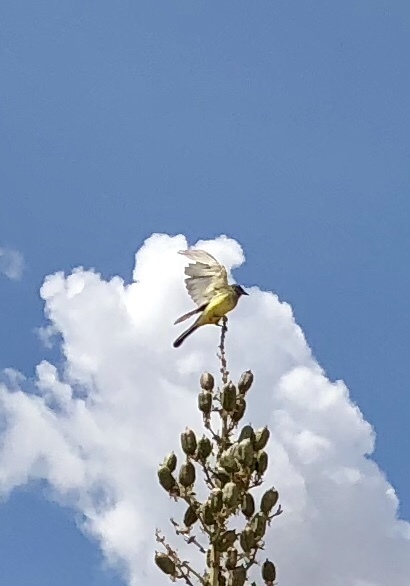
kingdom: Animalia
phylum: Chordata
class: Aves
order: Passeriformes
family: Tyrannidae
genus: Tyrannus
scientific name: Tyrannus verticalis
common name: Western kingbird
